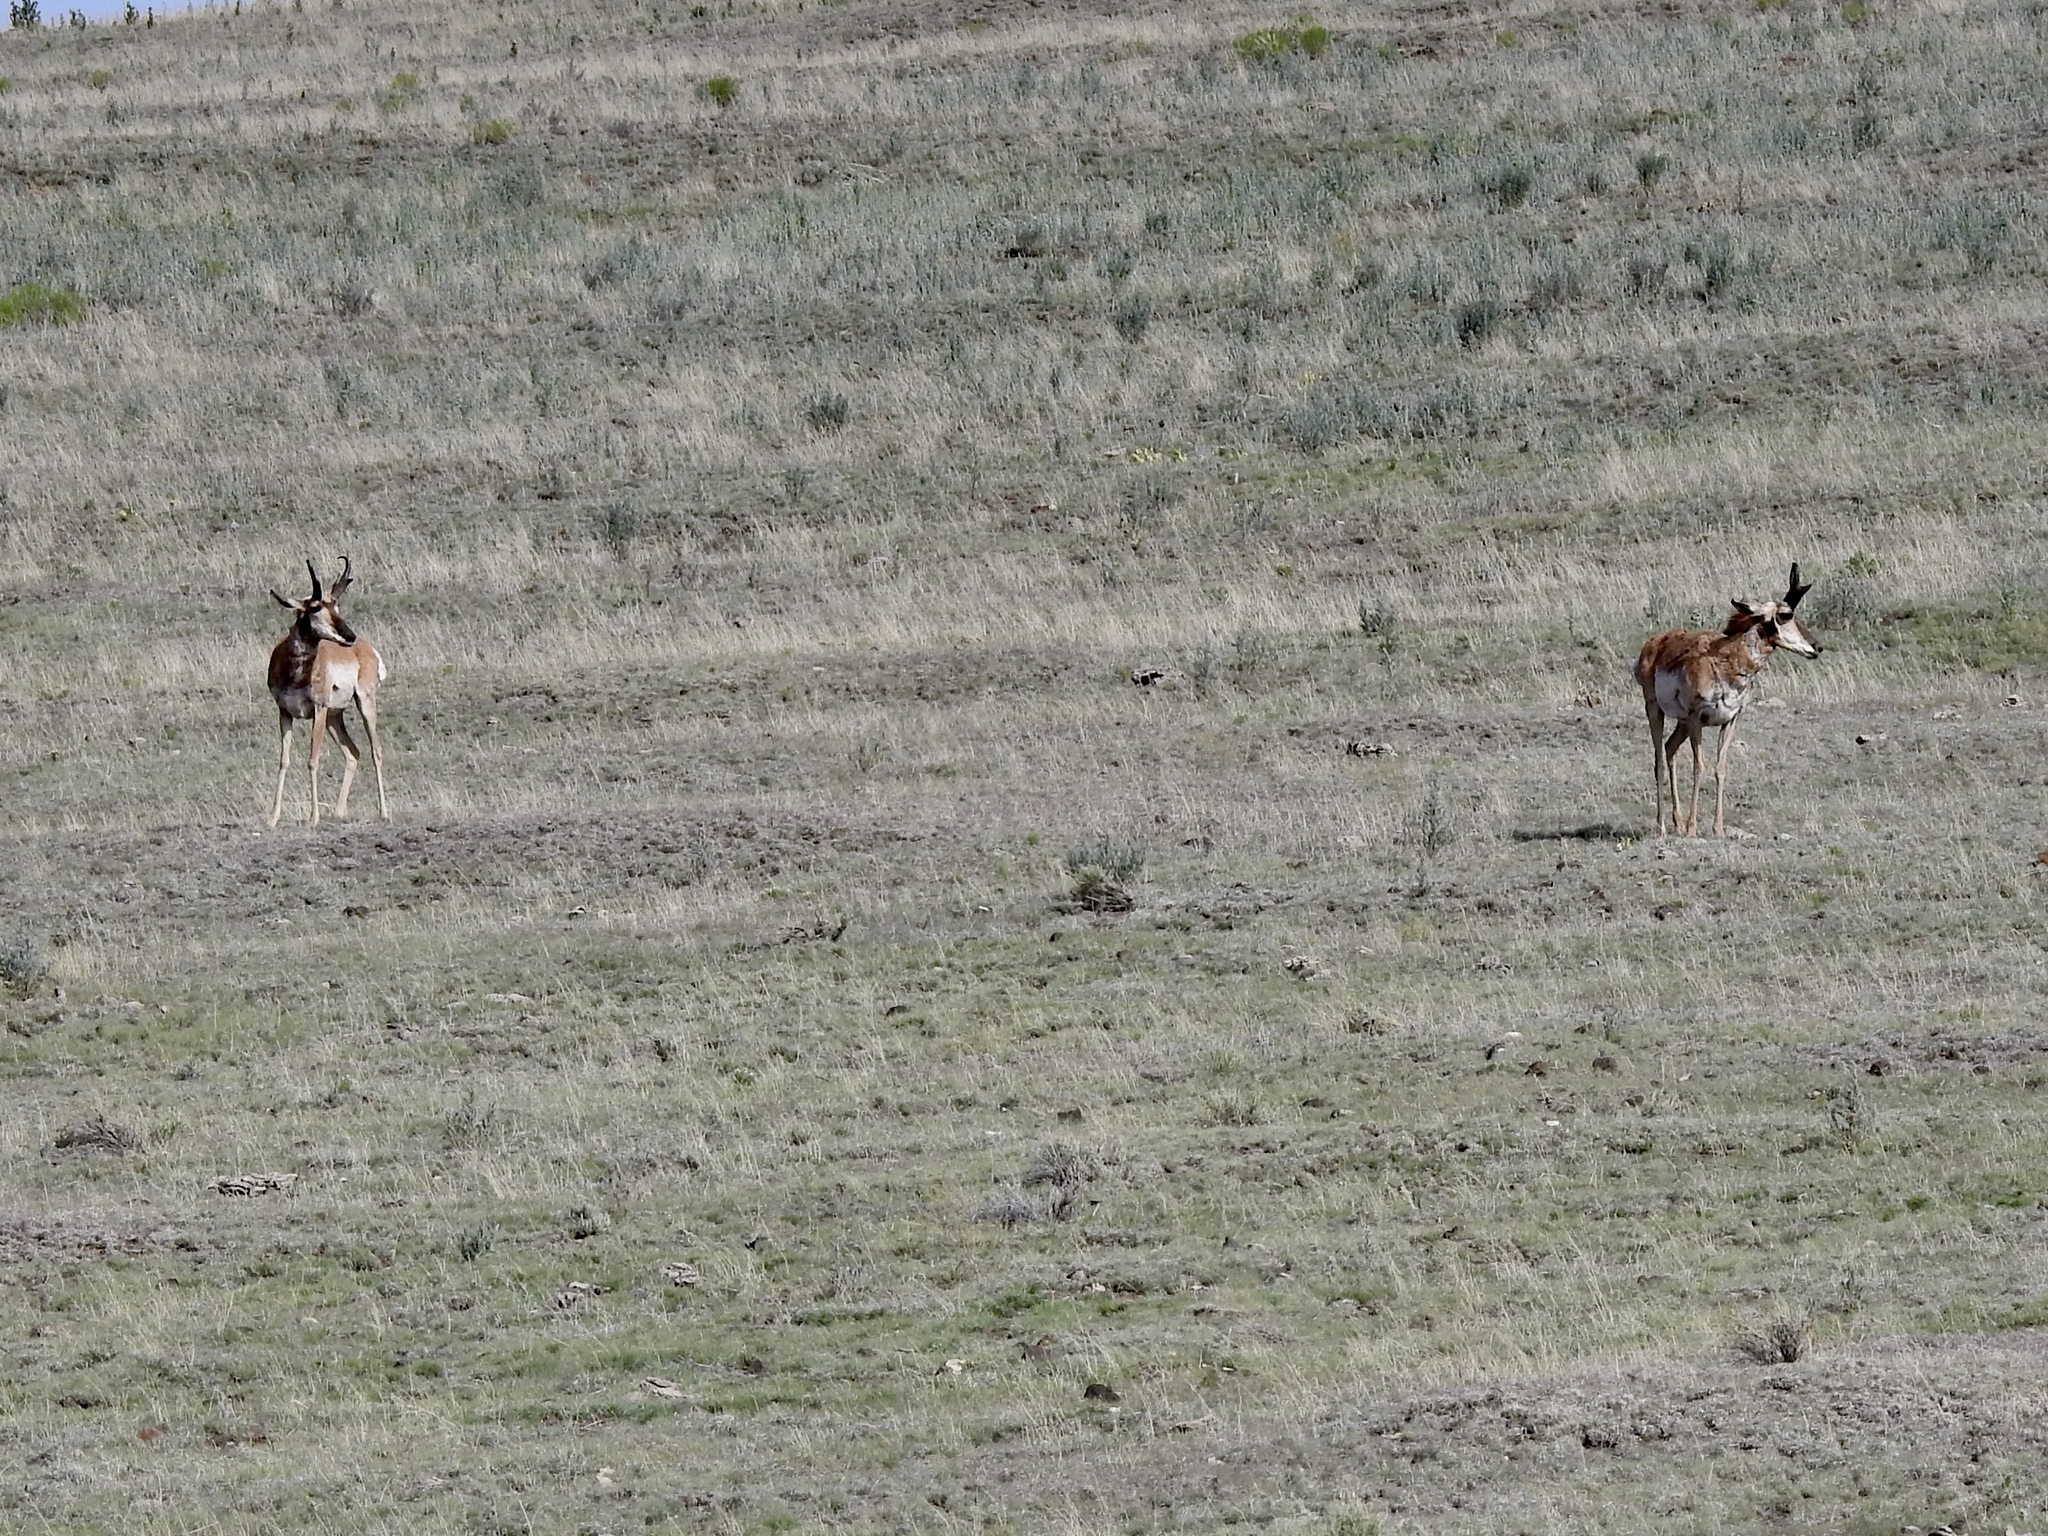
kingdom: Animalia
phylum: Chordata
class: Mammalia
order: Artiodactyla
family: Antilocapridae
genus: Antilocapra
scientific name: Antilocapra americana
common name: Pronghorn
